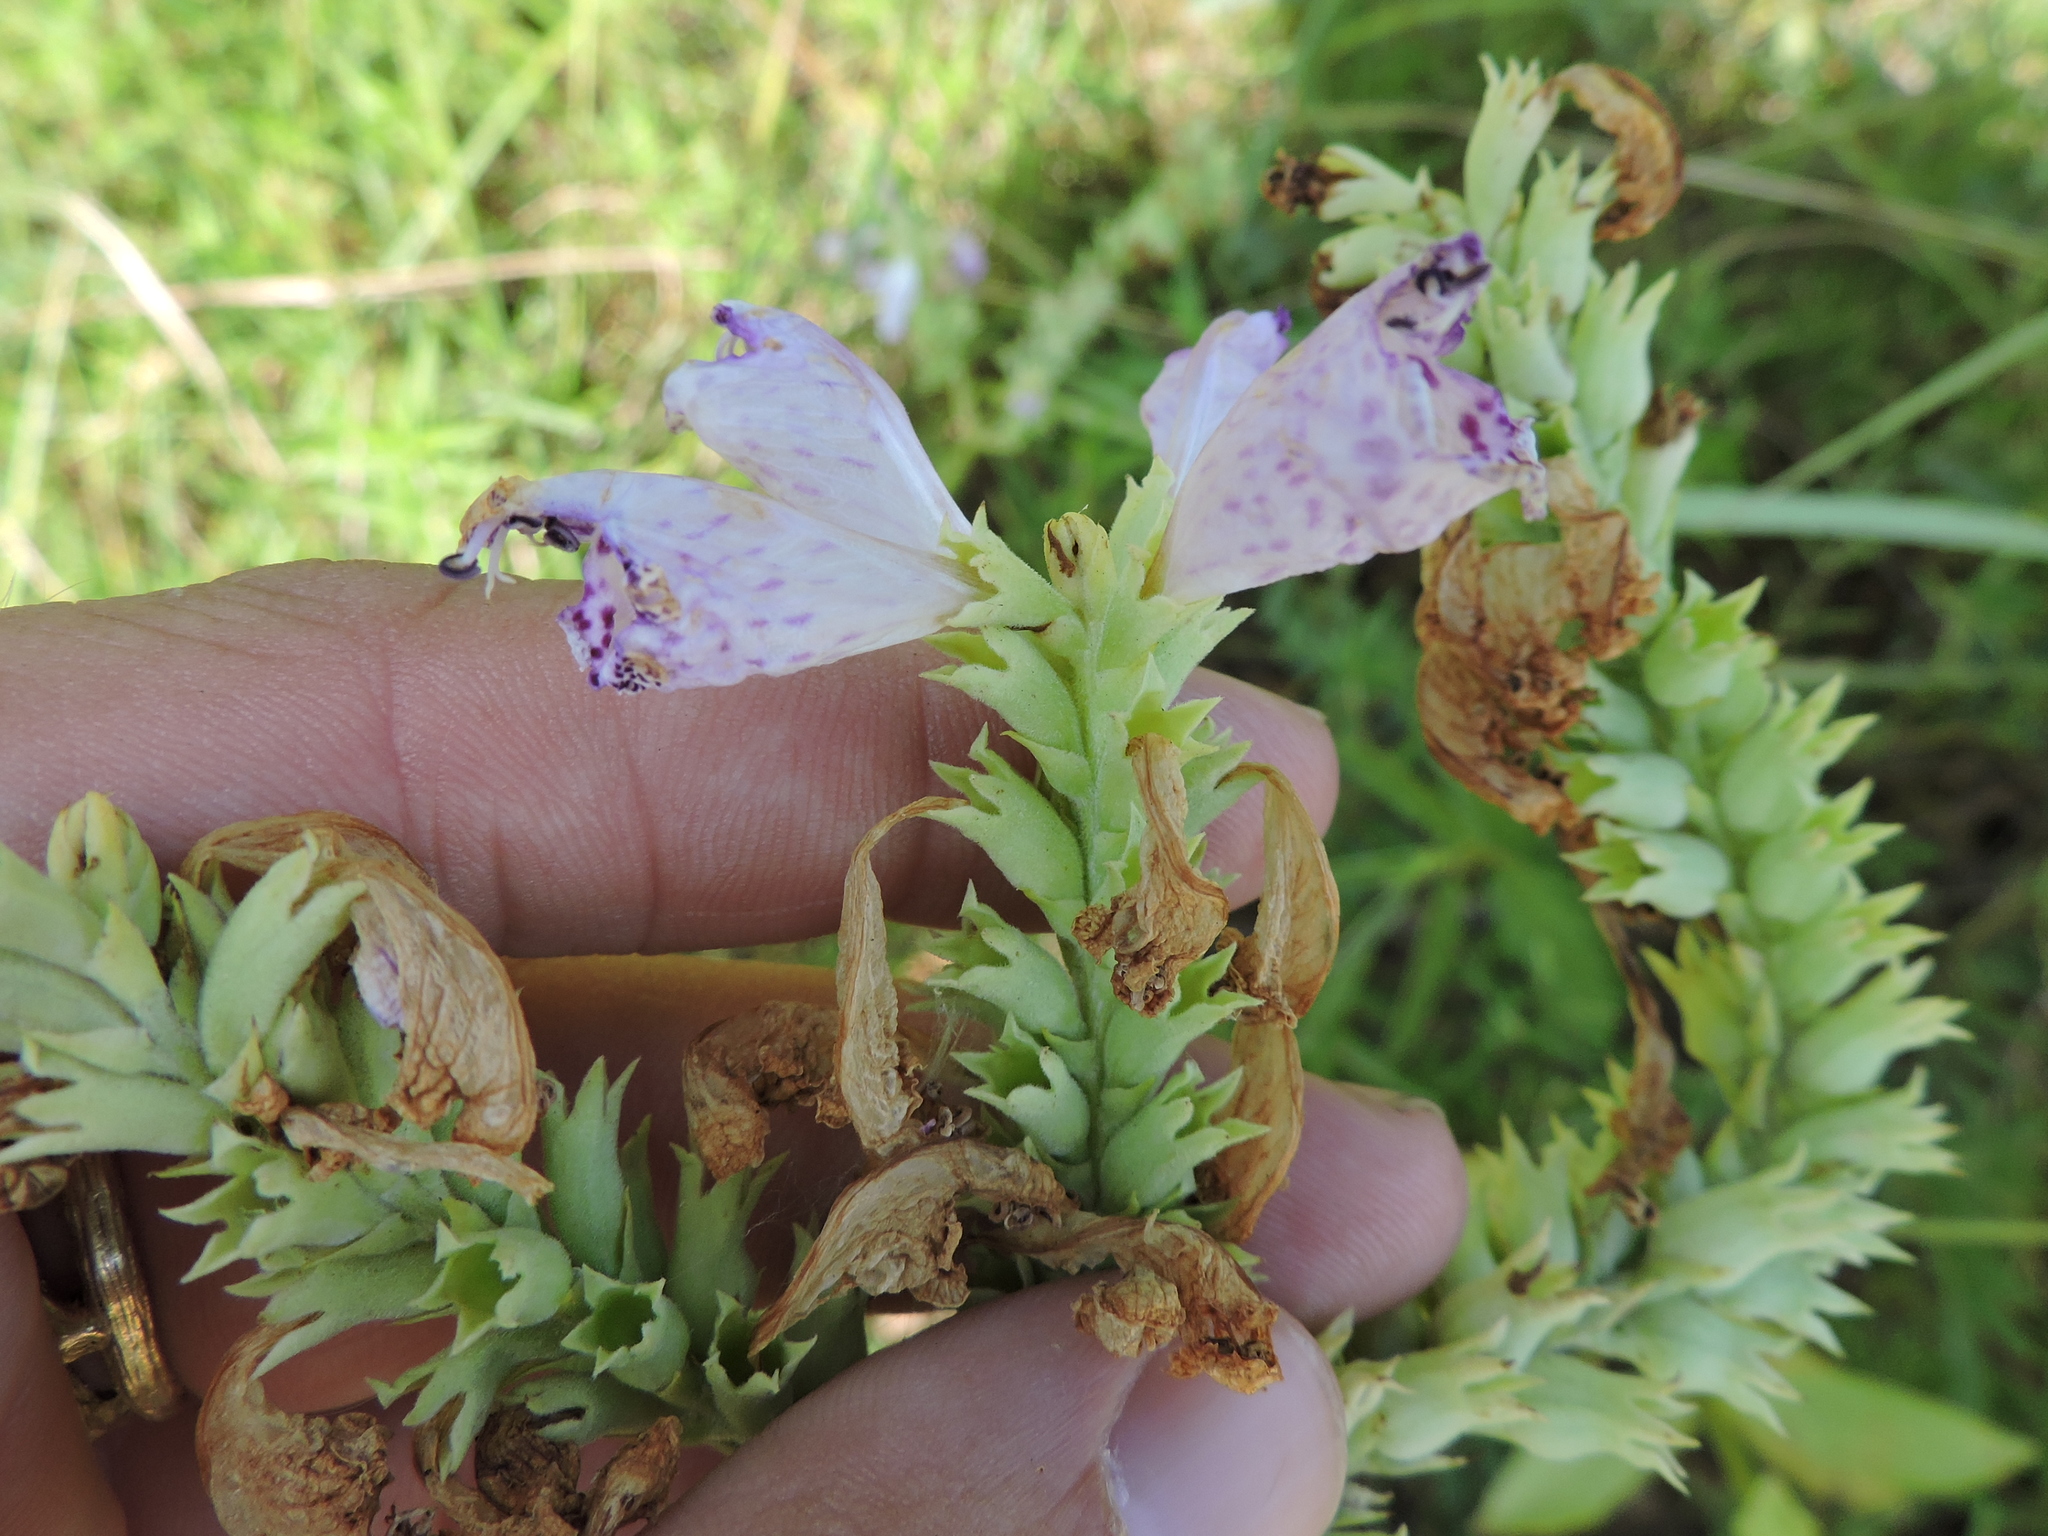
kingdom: Plantae
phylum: Tracheophyta
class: Magnoliopsida
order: Lamiales
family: Lamiaceae
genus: Physostegia
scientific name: Physostegia digitalis
